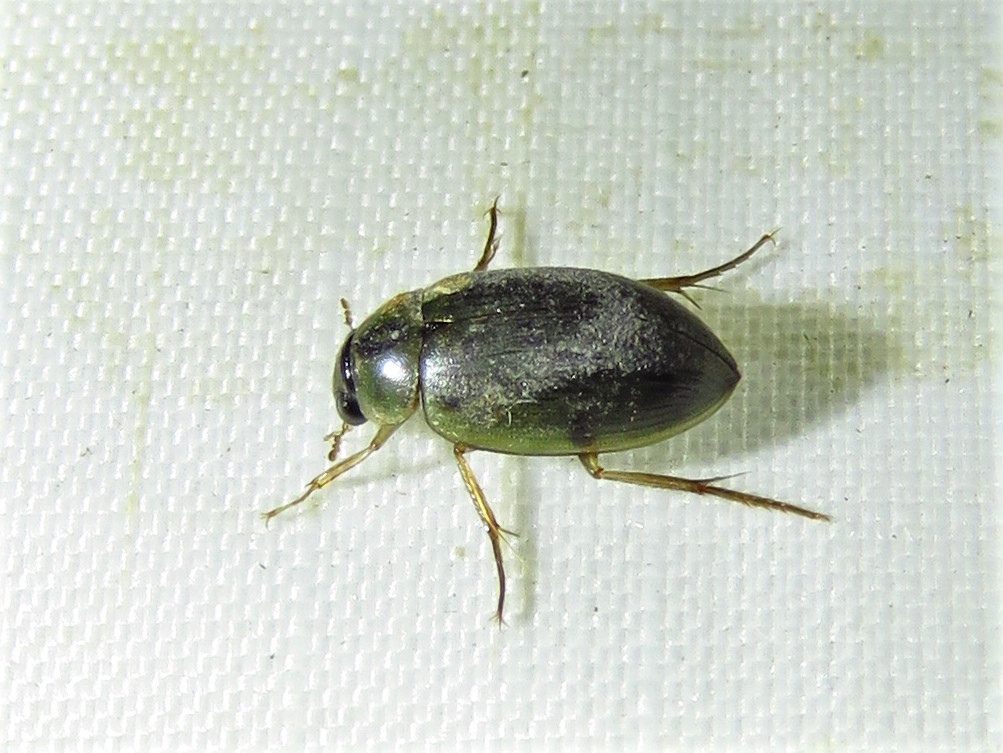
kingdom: Animalia
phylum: Arthropoda
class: Insecta
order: Coleoptera
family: Hydrophilidae
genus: Berosus
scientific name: Berosus
